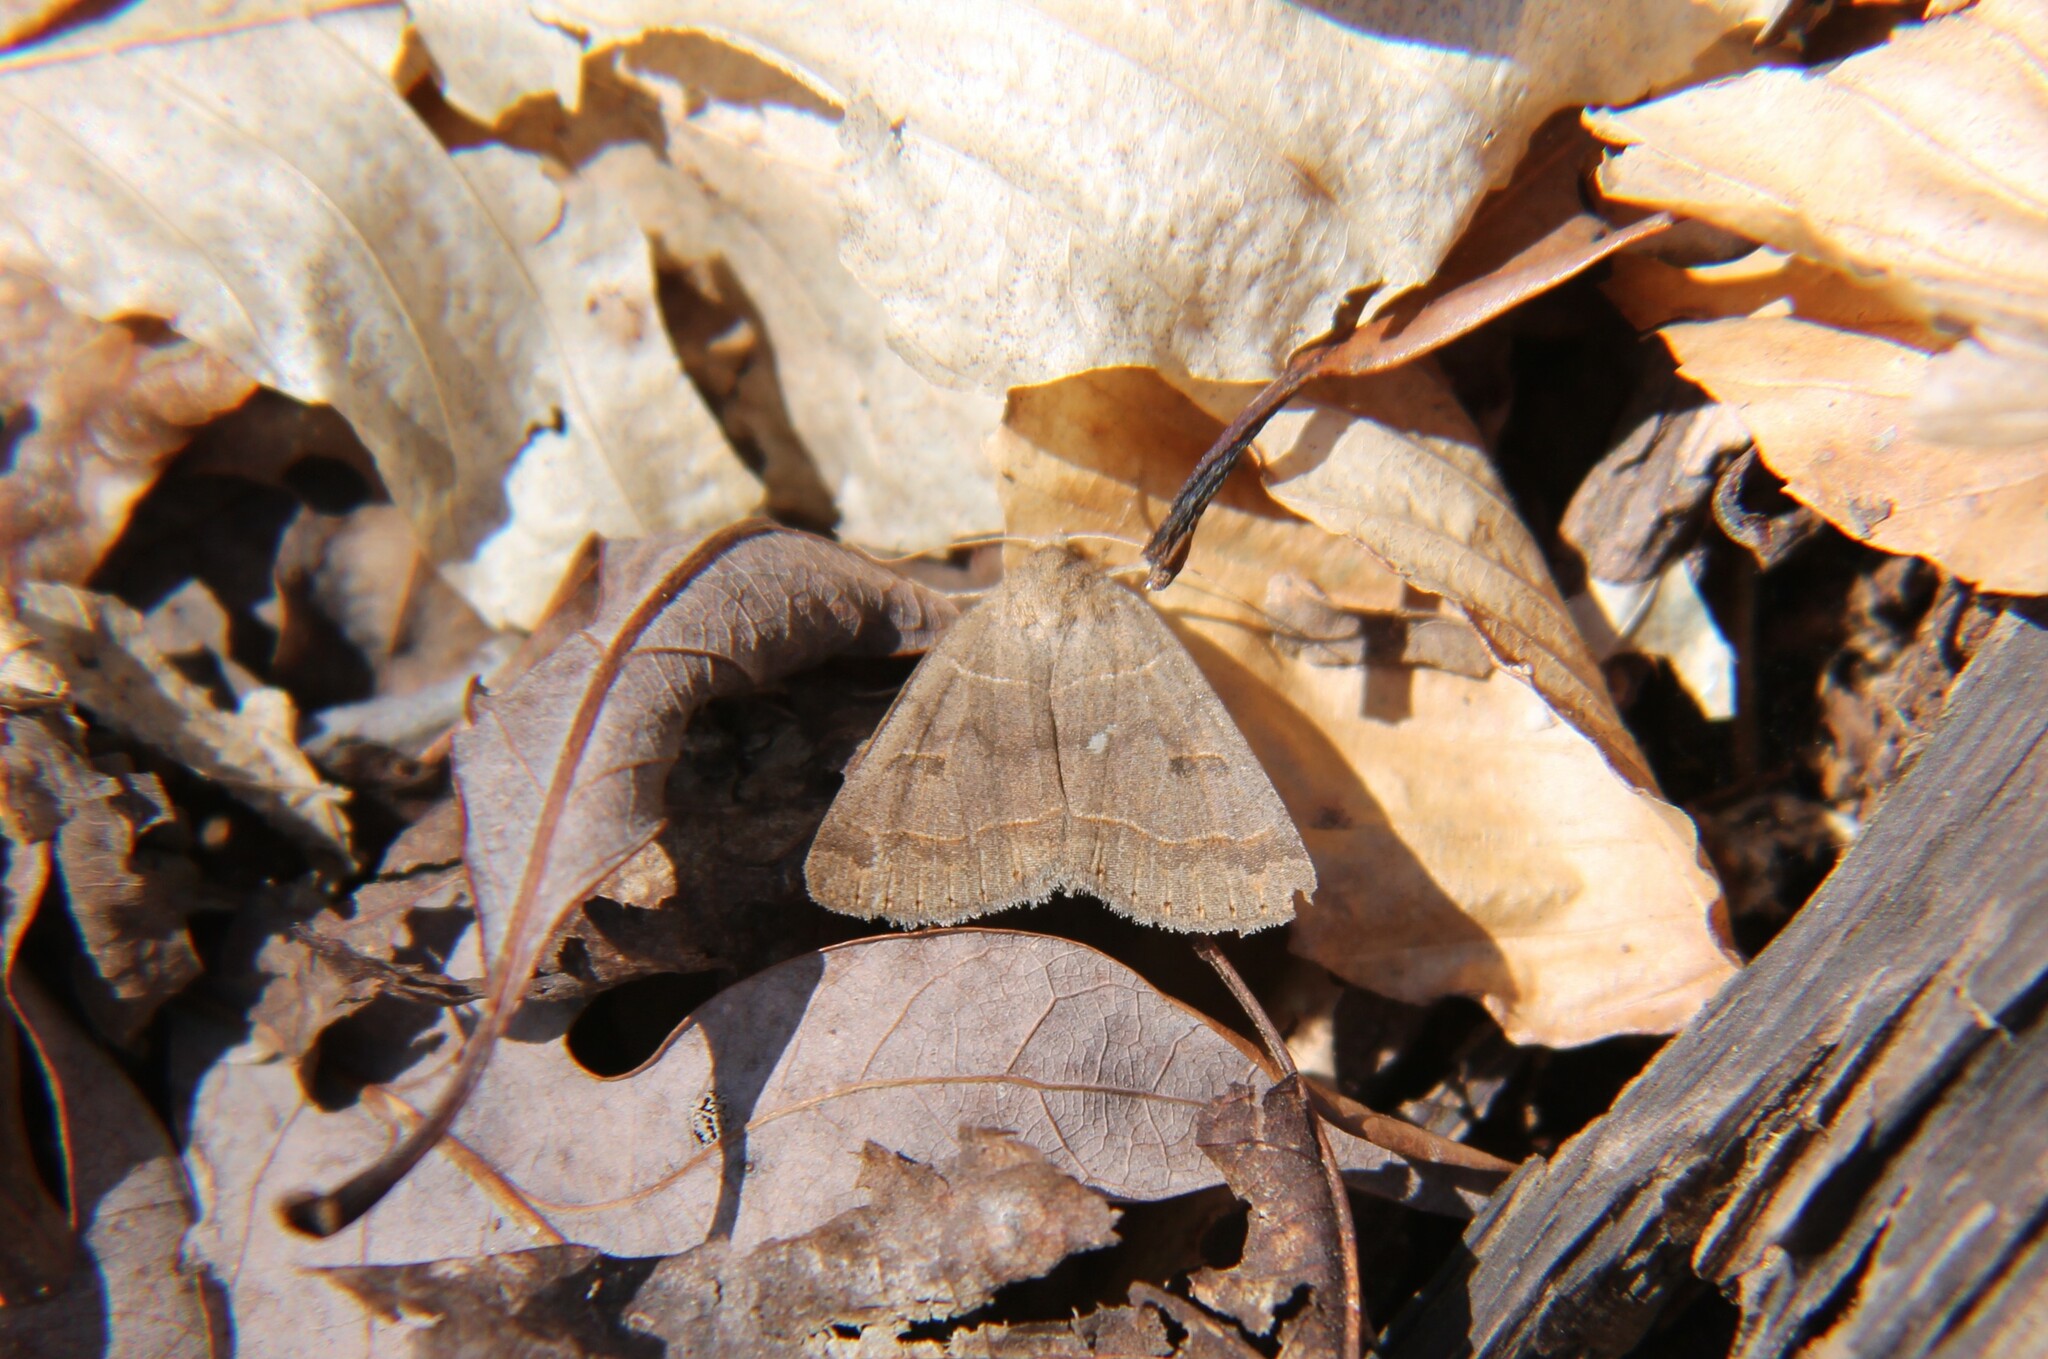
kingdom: Animalia
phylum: Arthropoda
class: Insecta
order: Lepidoptera
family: Erebidae
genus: Phoberia
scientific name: Phoberia atomaris
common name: Common oak moth
